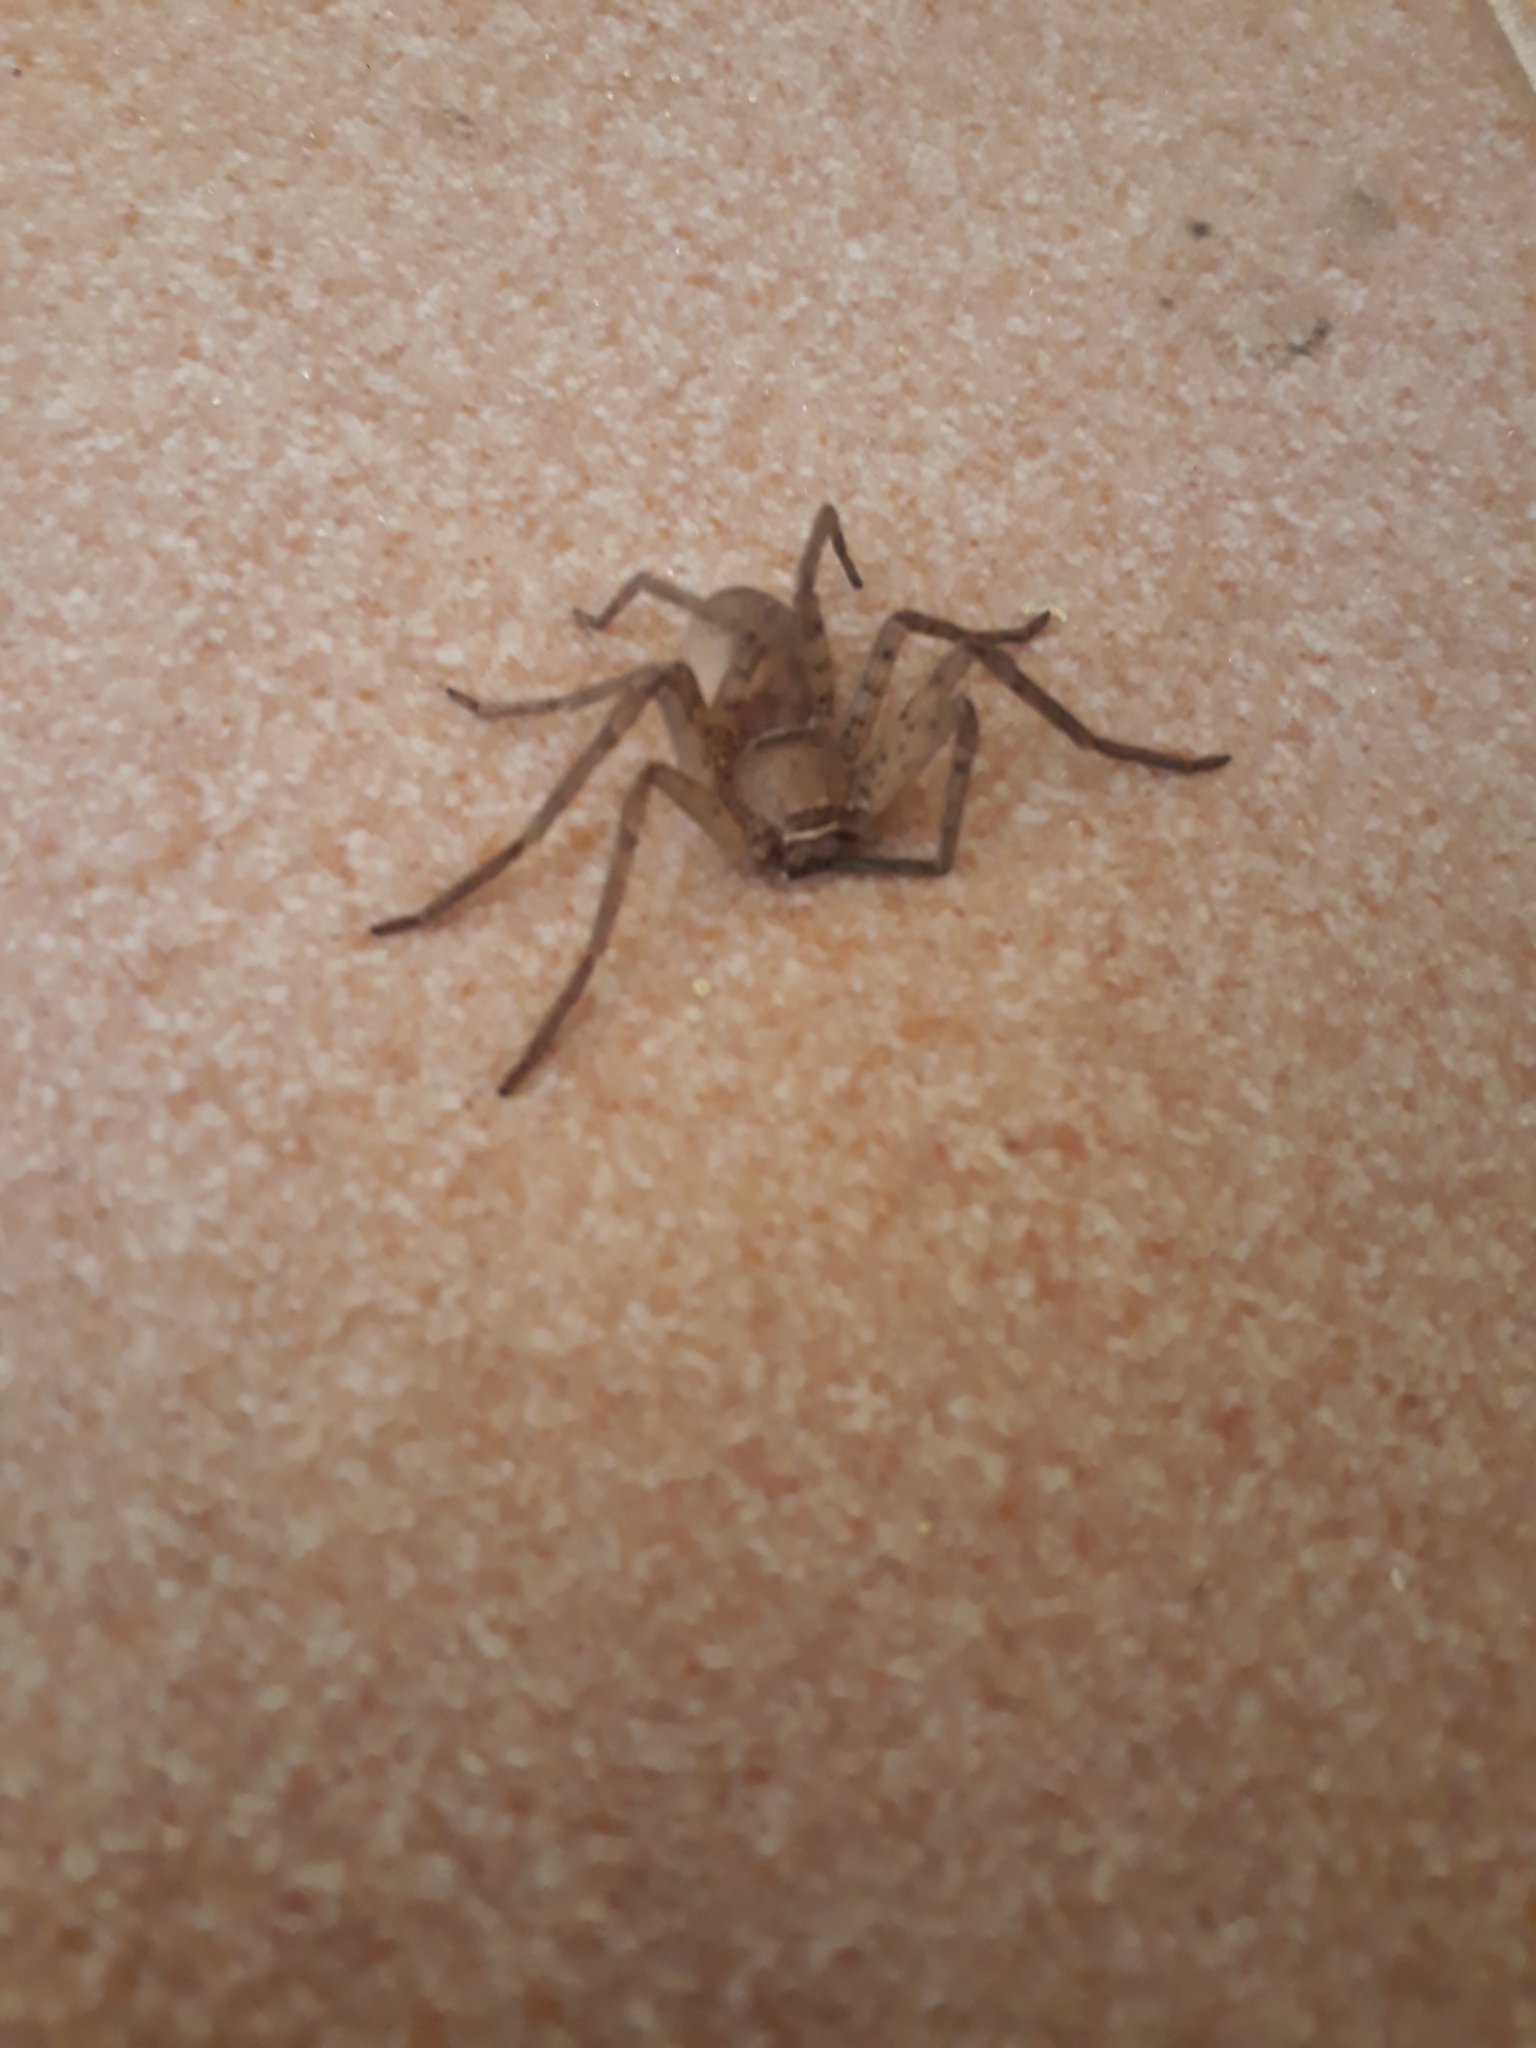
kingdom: Animalia
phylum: Arthropoda
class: Arachnida
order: Araneae
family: Sparassidae
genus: Heteropoda
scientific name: Heteropoda venatoria
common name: Huntsman spider
